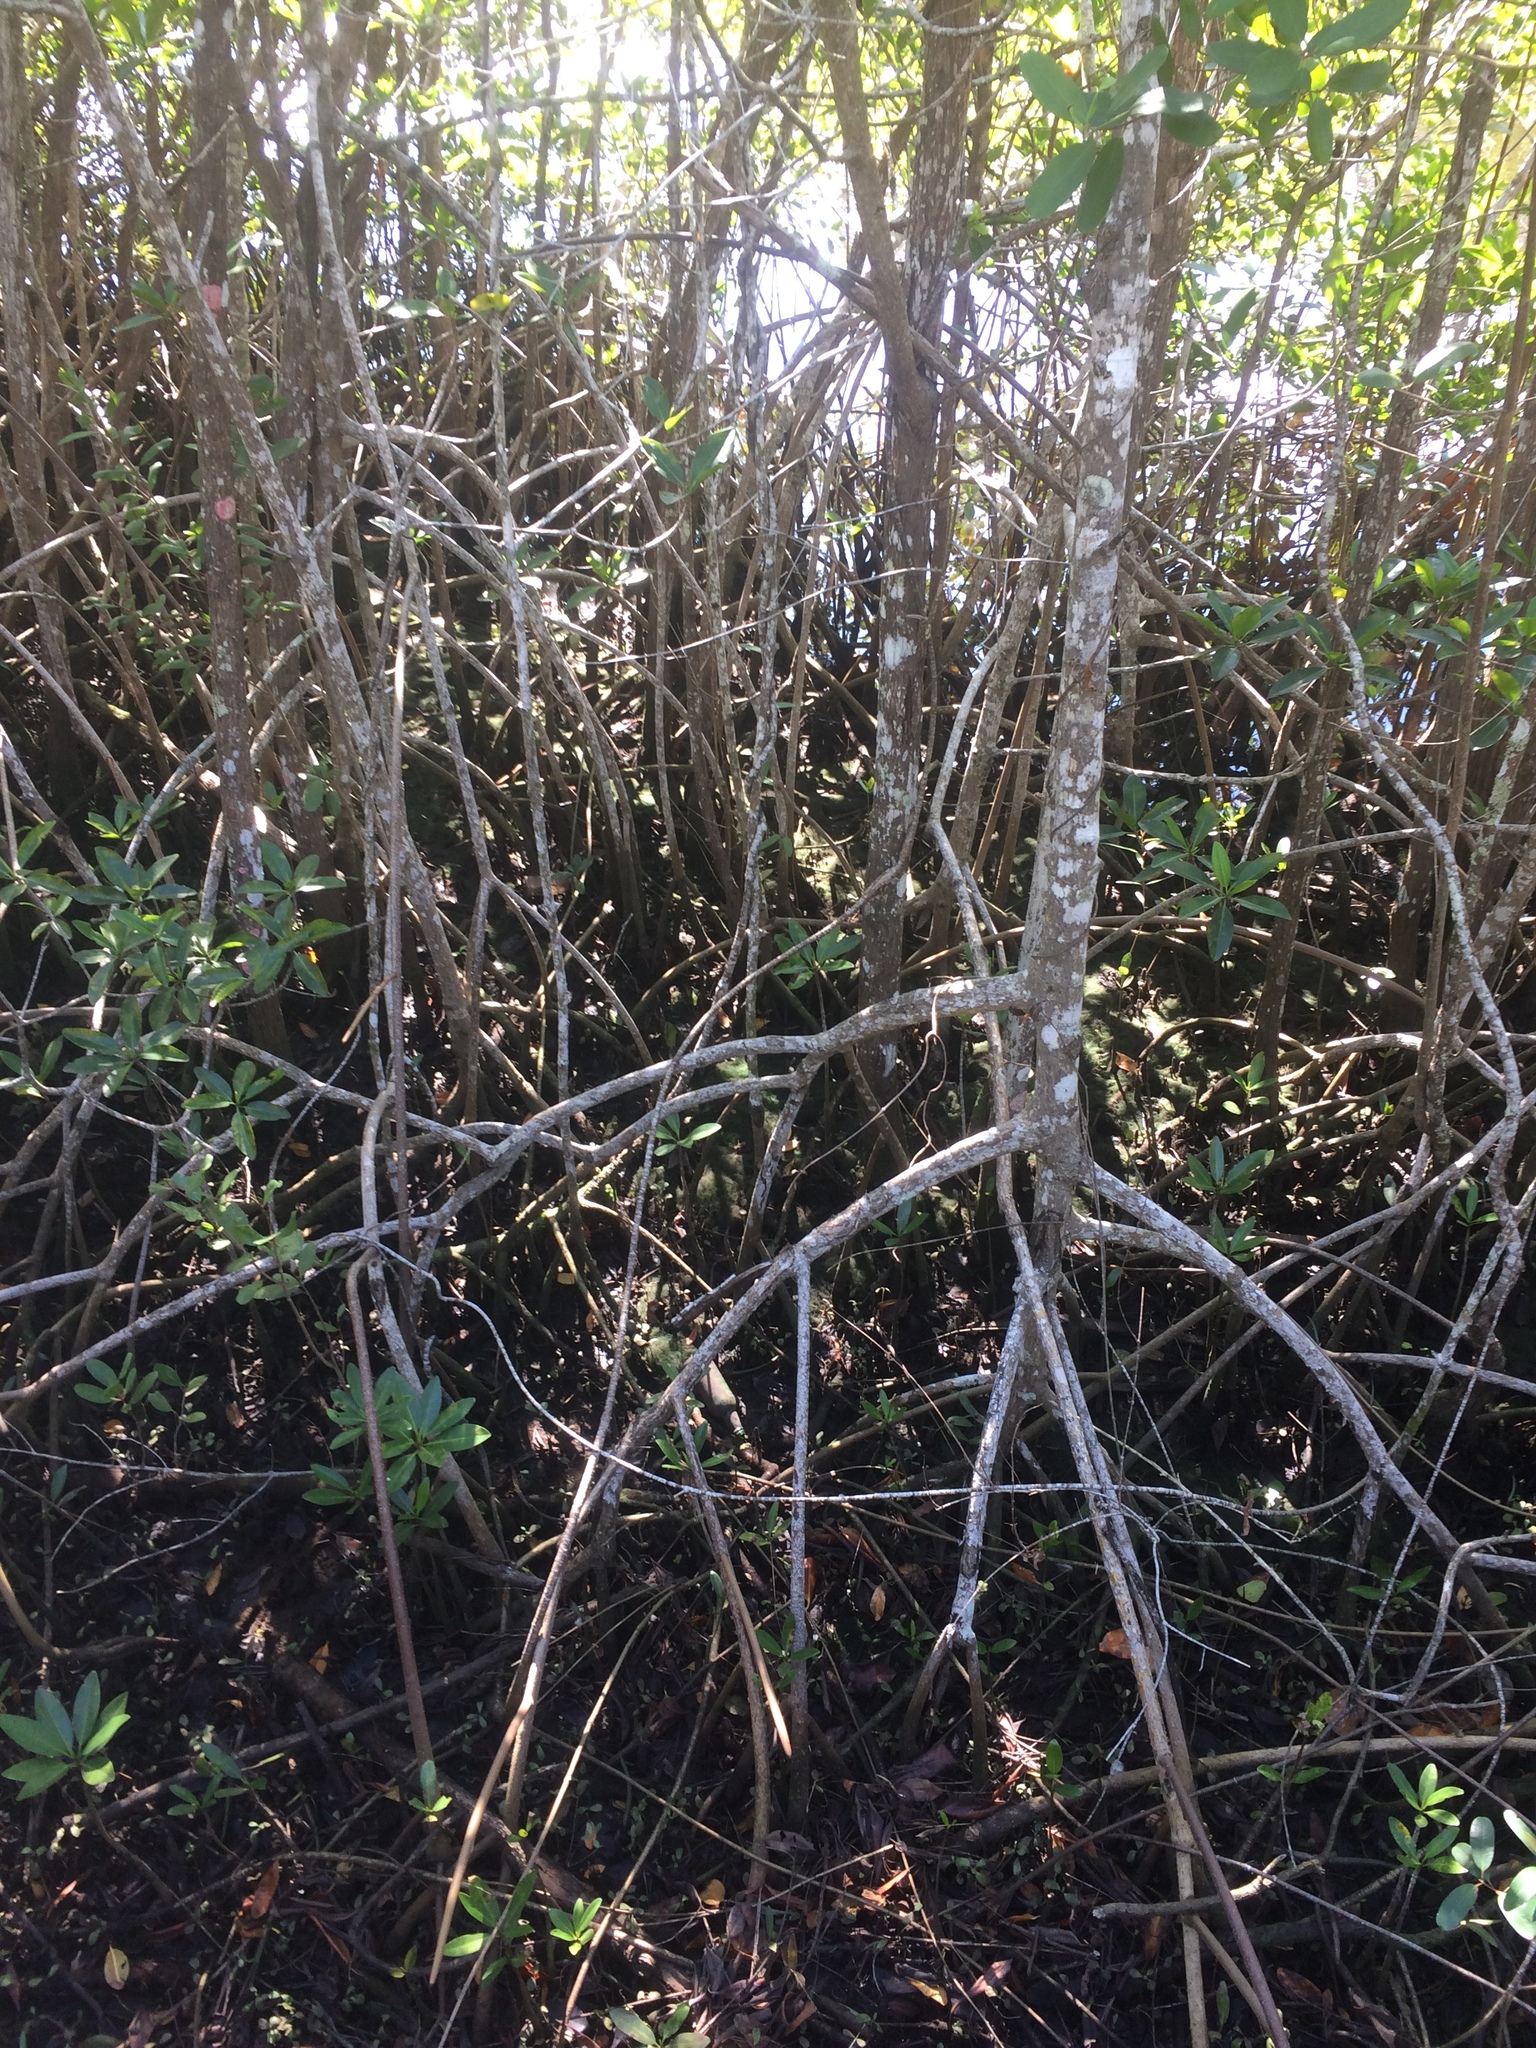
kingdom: Plantae
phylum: Tracheophyta
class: Magnoliopsida
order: Malpighiales
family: Rhizophoraceae
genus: Rhizophora
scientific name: Rhizophora mangle
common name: Red mangrove
